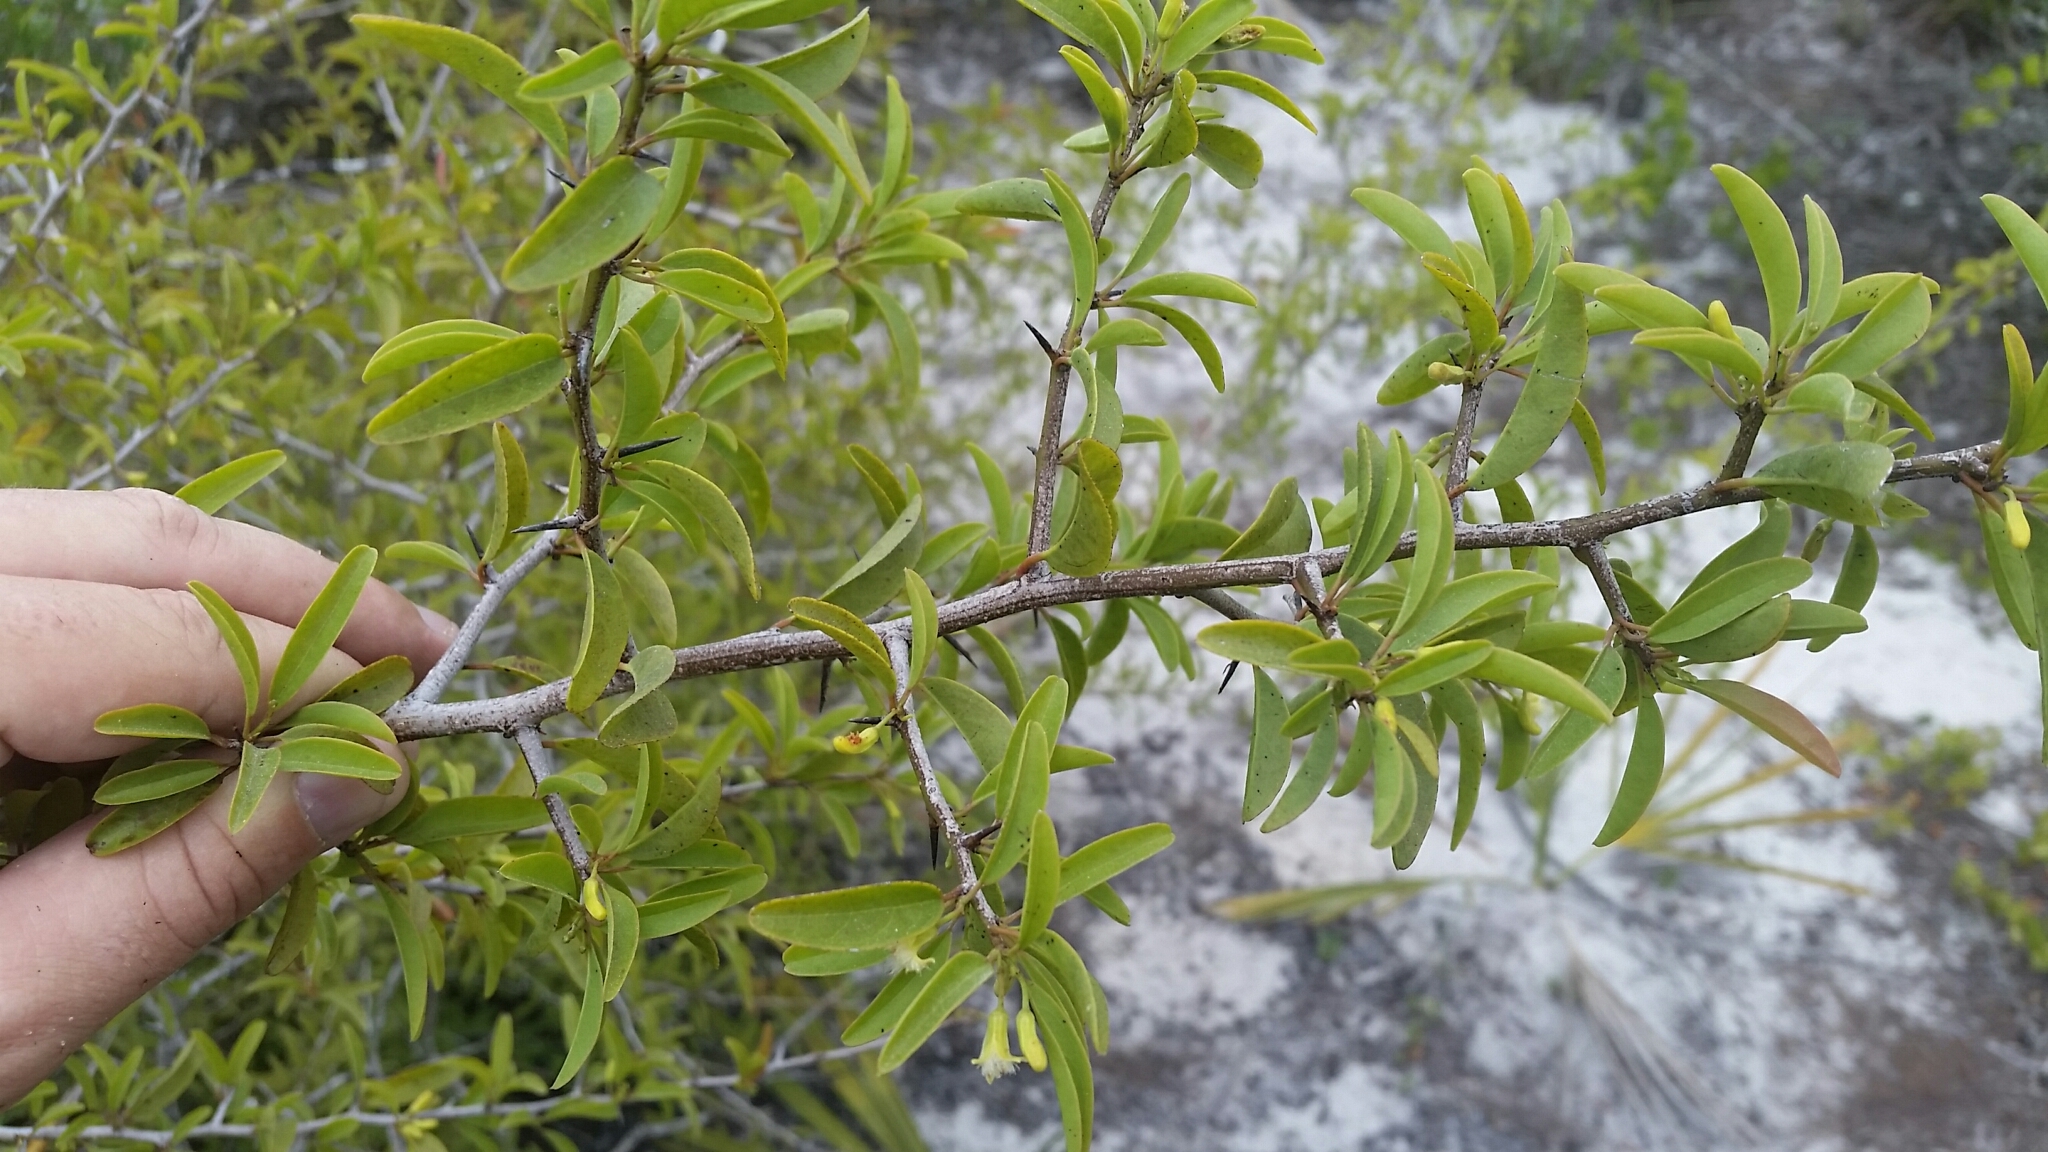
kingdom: Plantae
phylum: Tracheophyta
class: Magnoliopsida
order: Santalales
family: Ximeniaceae
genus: Ximenia
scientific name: Ximenia americana
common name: Tallowwood
